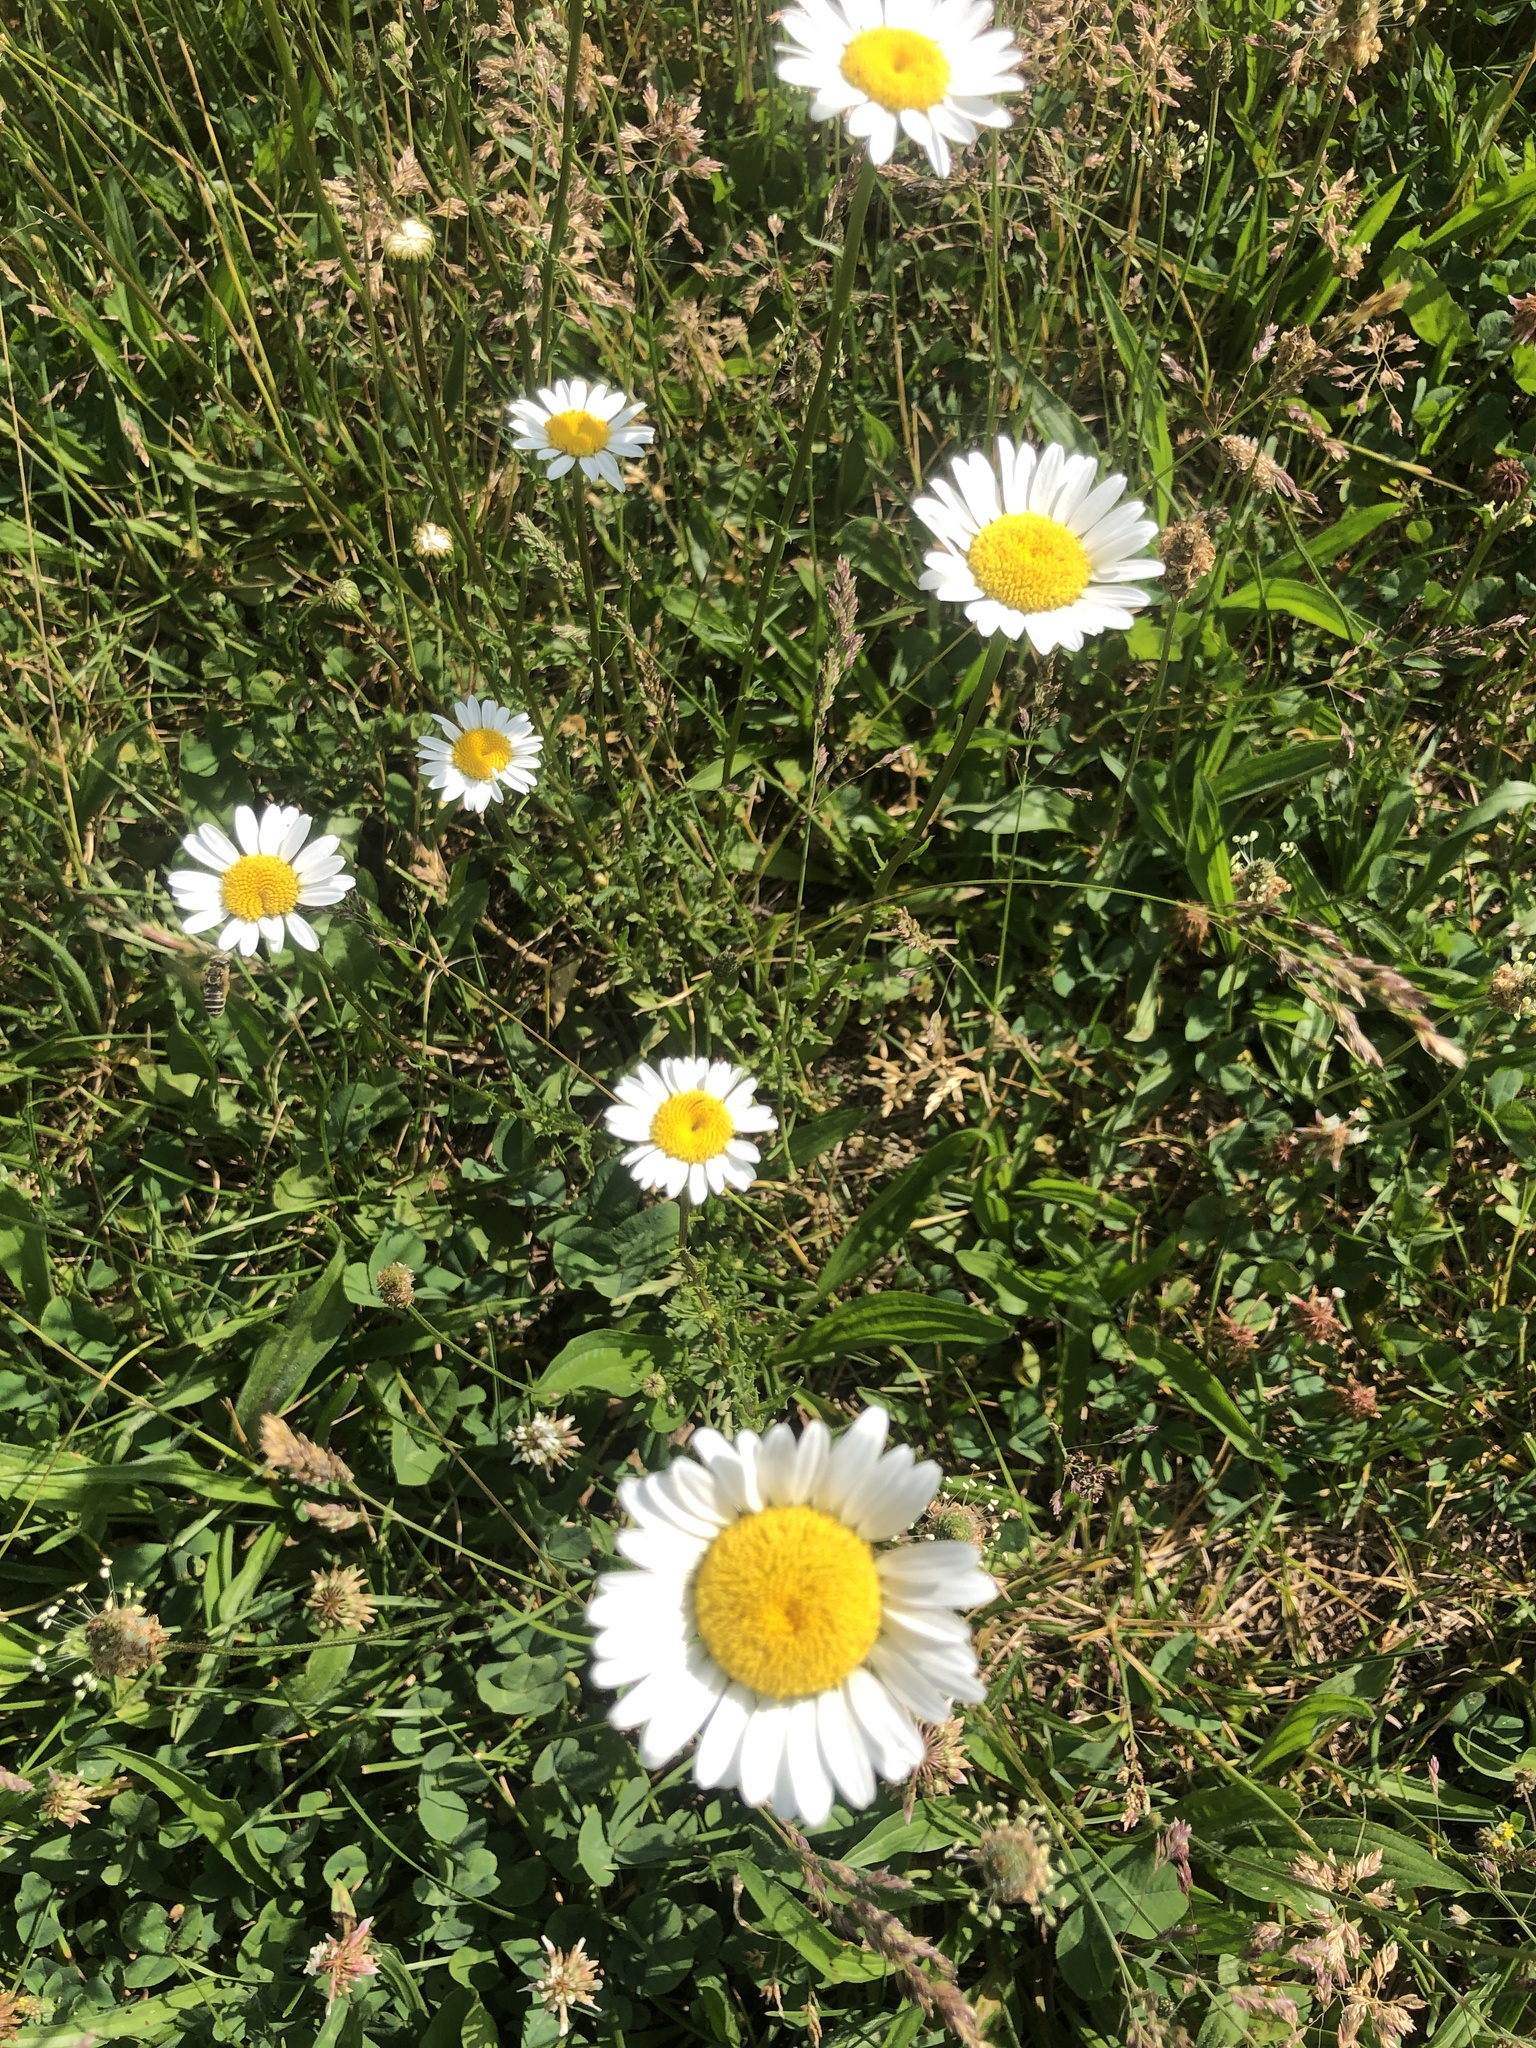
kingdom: Plantae
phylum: Tracheophyta
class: Magnoliopsida
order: Asterales
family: Asteraceae
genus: Leucanthemum
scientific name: Leucanthemum vulgare
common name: Oxeye daisy
